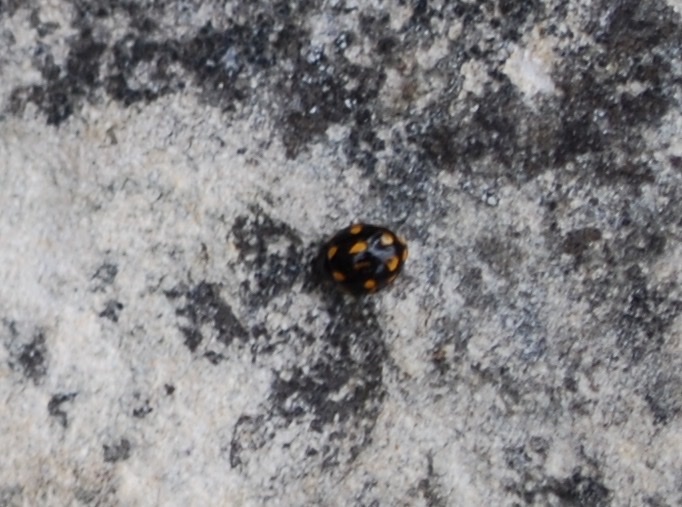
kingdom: Animalia
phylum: Arthropoda
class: Insecta
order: Coleoptera
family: Coccinellidae
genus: Coccinella
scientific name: Coccinella leonina
